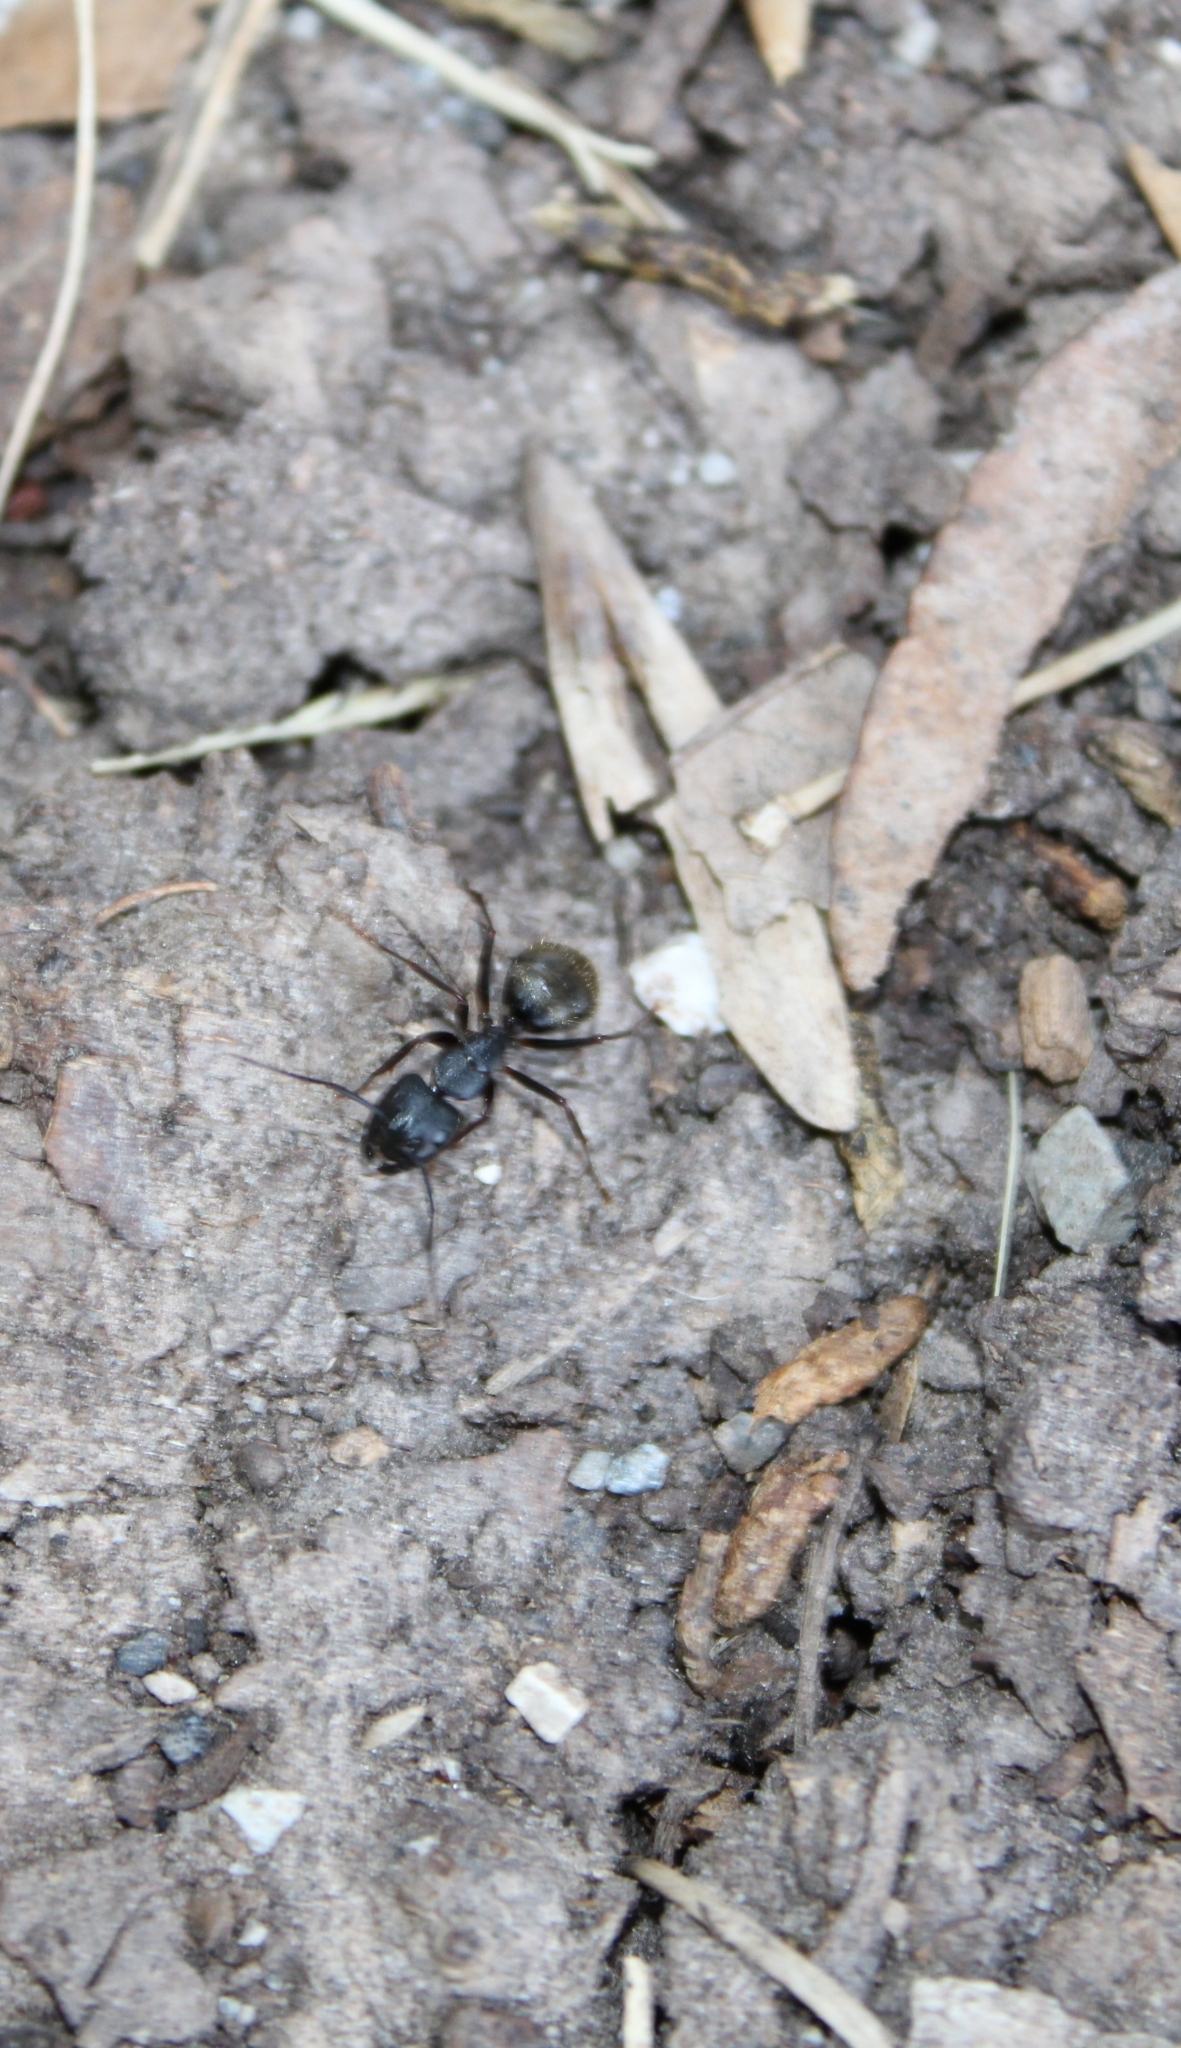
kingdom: Animalia
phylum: Arthropoda
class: Insecta
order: Hymenoptera
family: Formicidae
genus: Camponotus
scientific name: Camponotus pennsylvanicus
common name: Black carpenter ant
